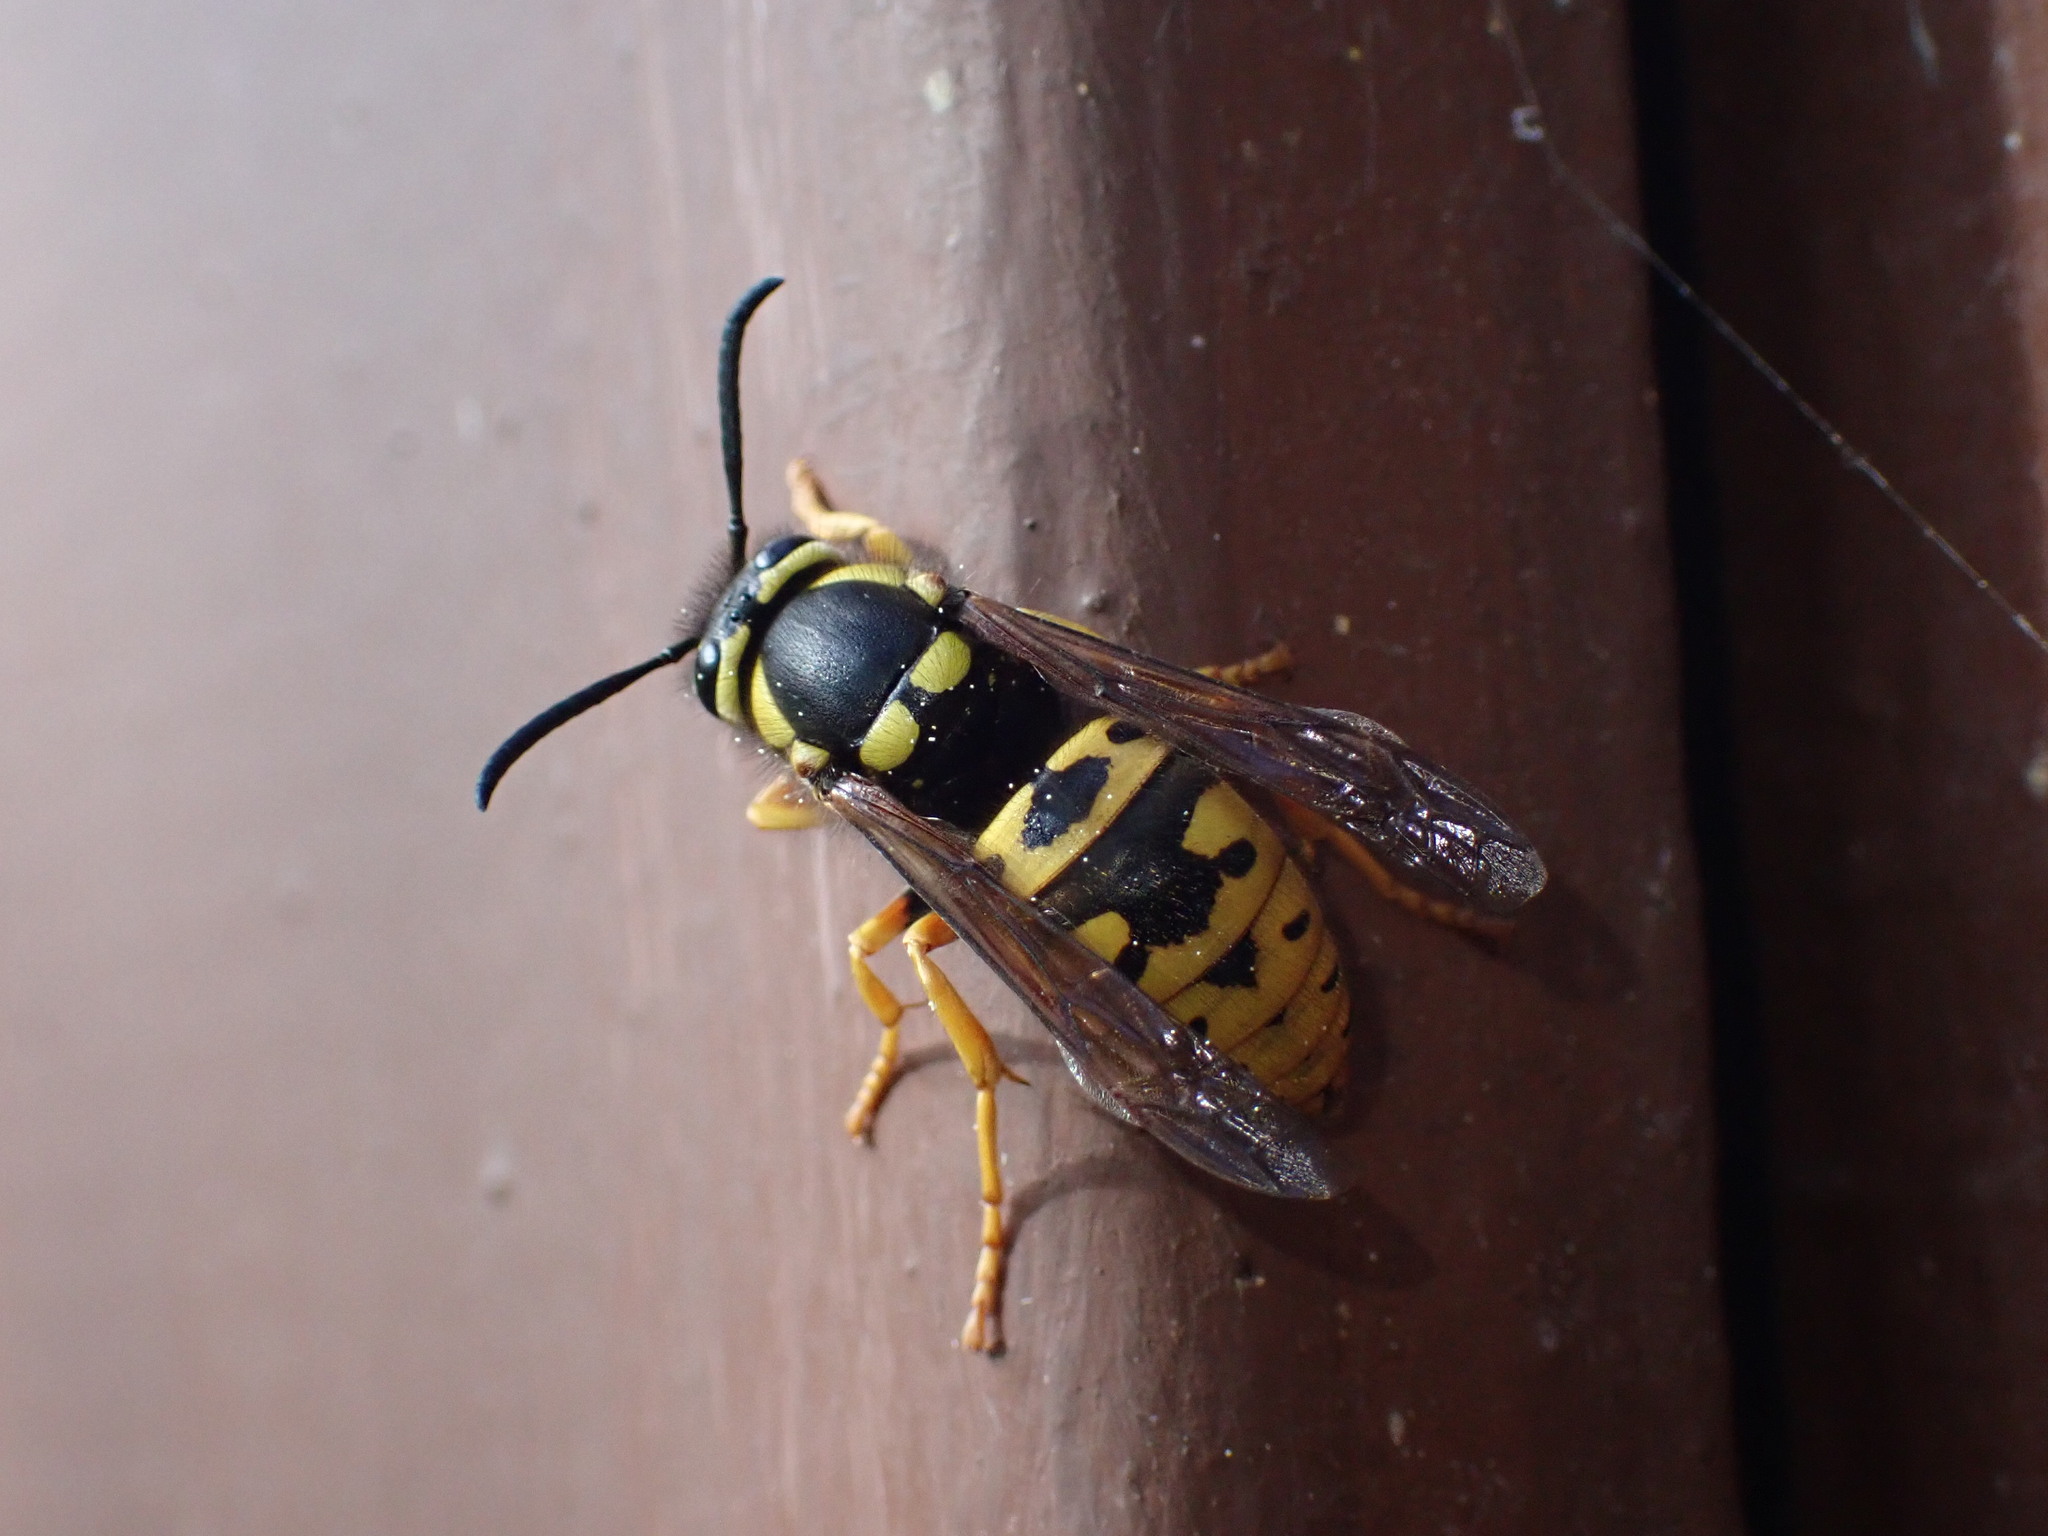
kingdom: Animalia
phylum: Arthropoda
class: Insecta
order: Hymenoptera
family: Vespidae
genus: Vespula
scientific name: Vespula atropilosa
